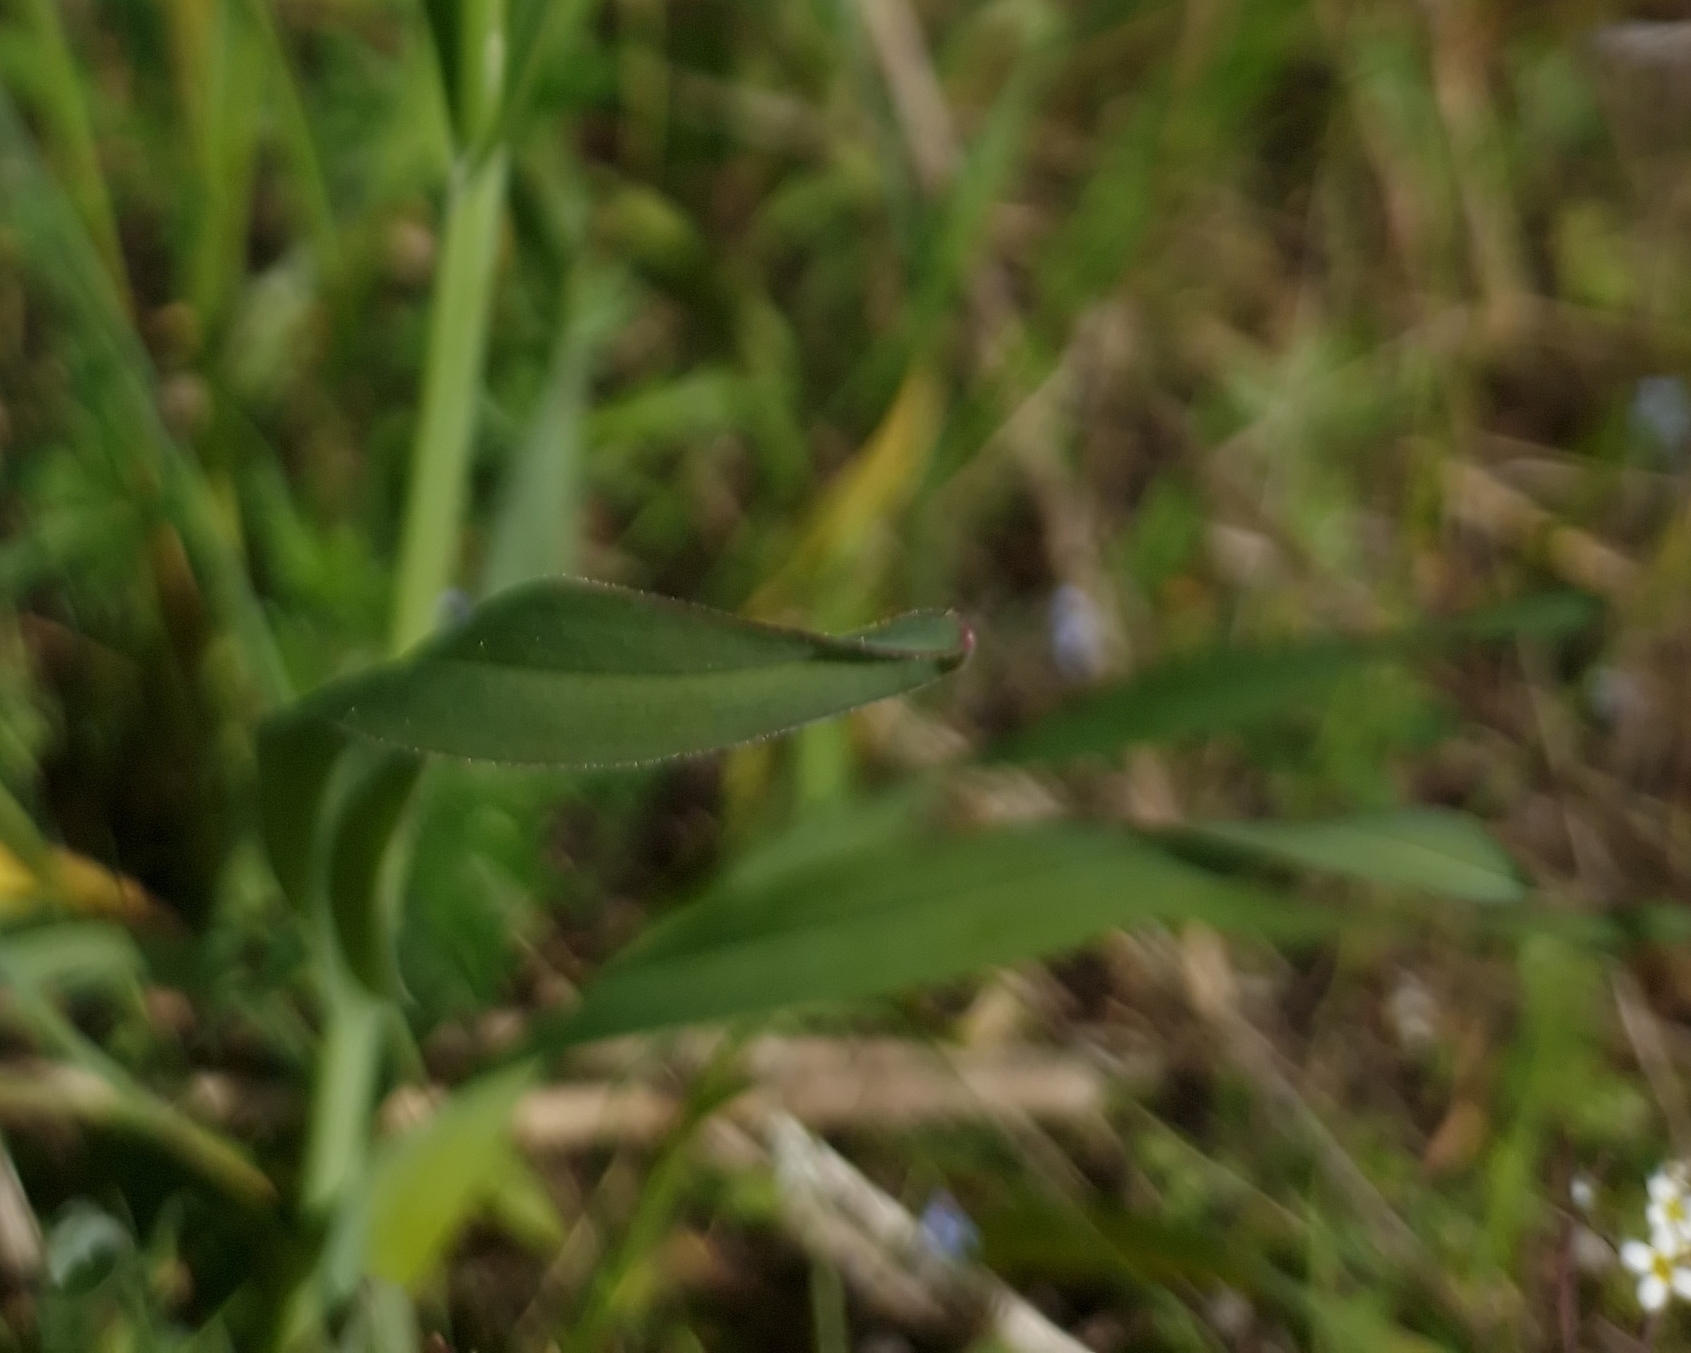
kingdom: Plantae
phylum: Tracheophyta
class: Liliopsida
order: Asparagales
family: Amaryllidaceae
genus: Allium
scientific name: Allium scorodoprasum
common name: Sand leek
